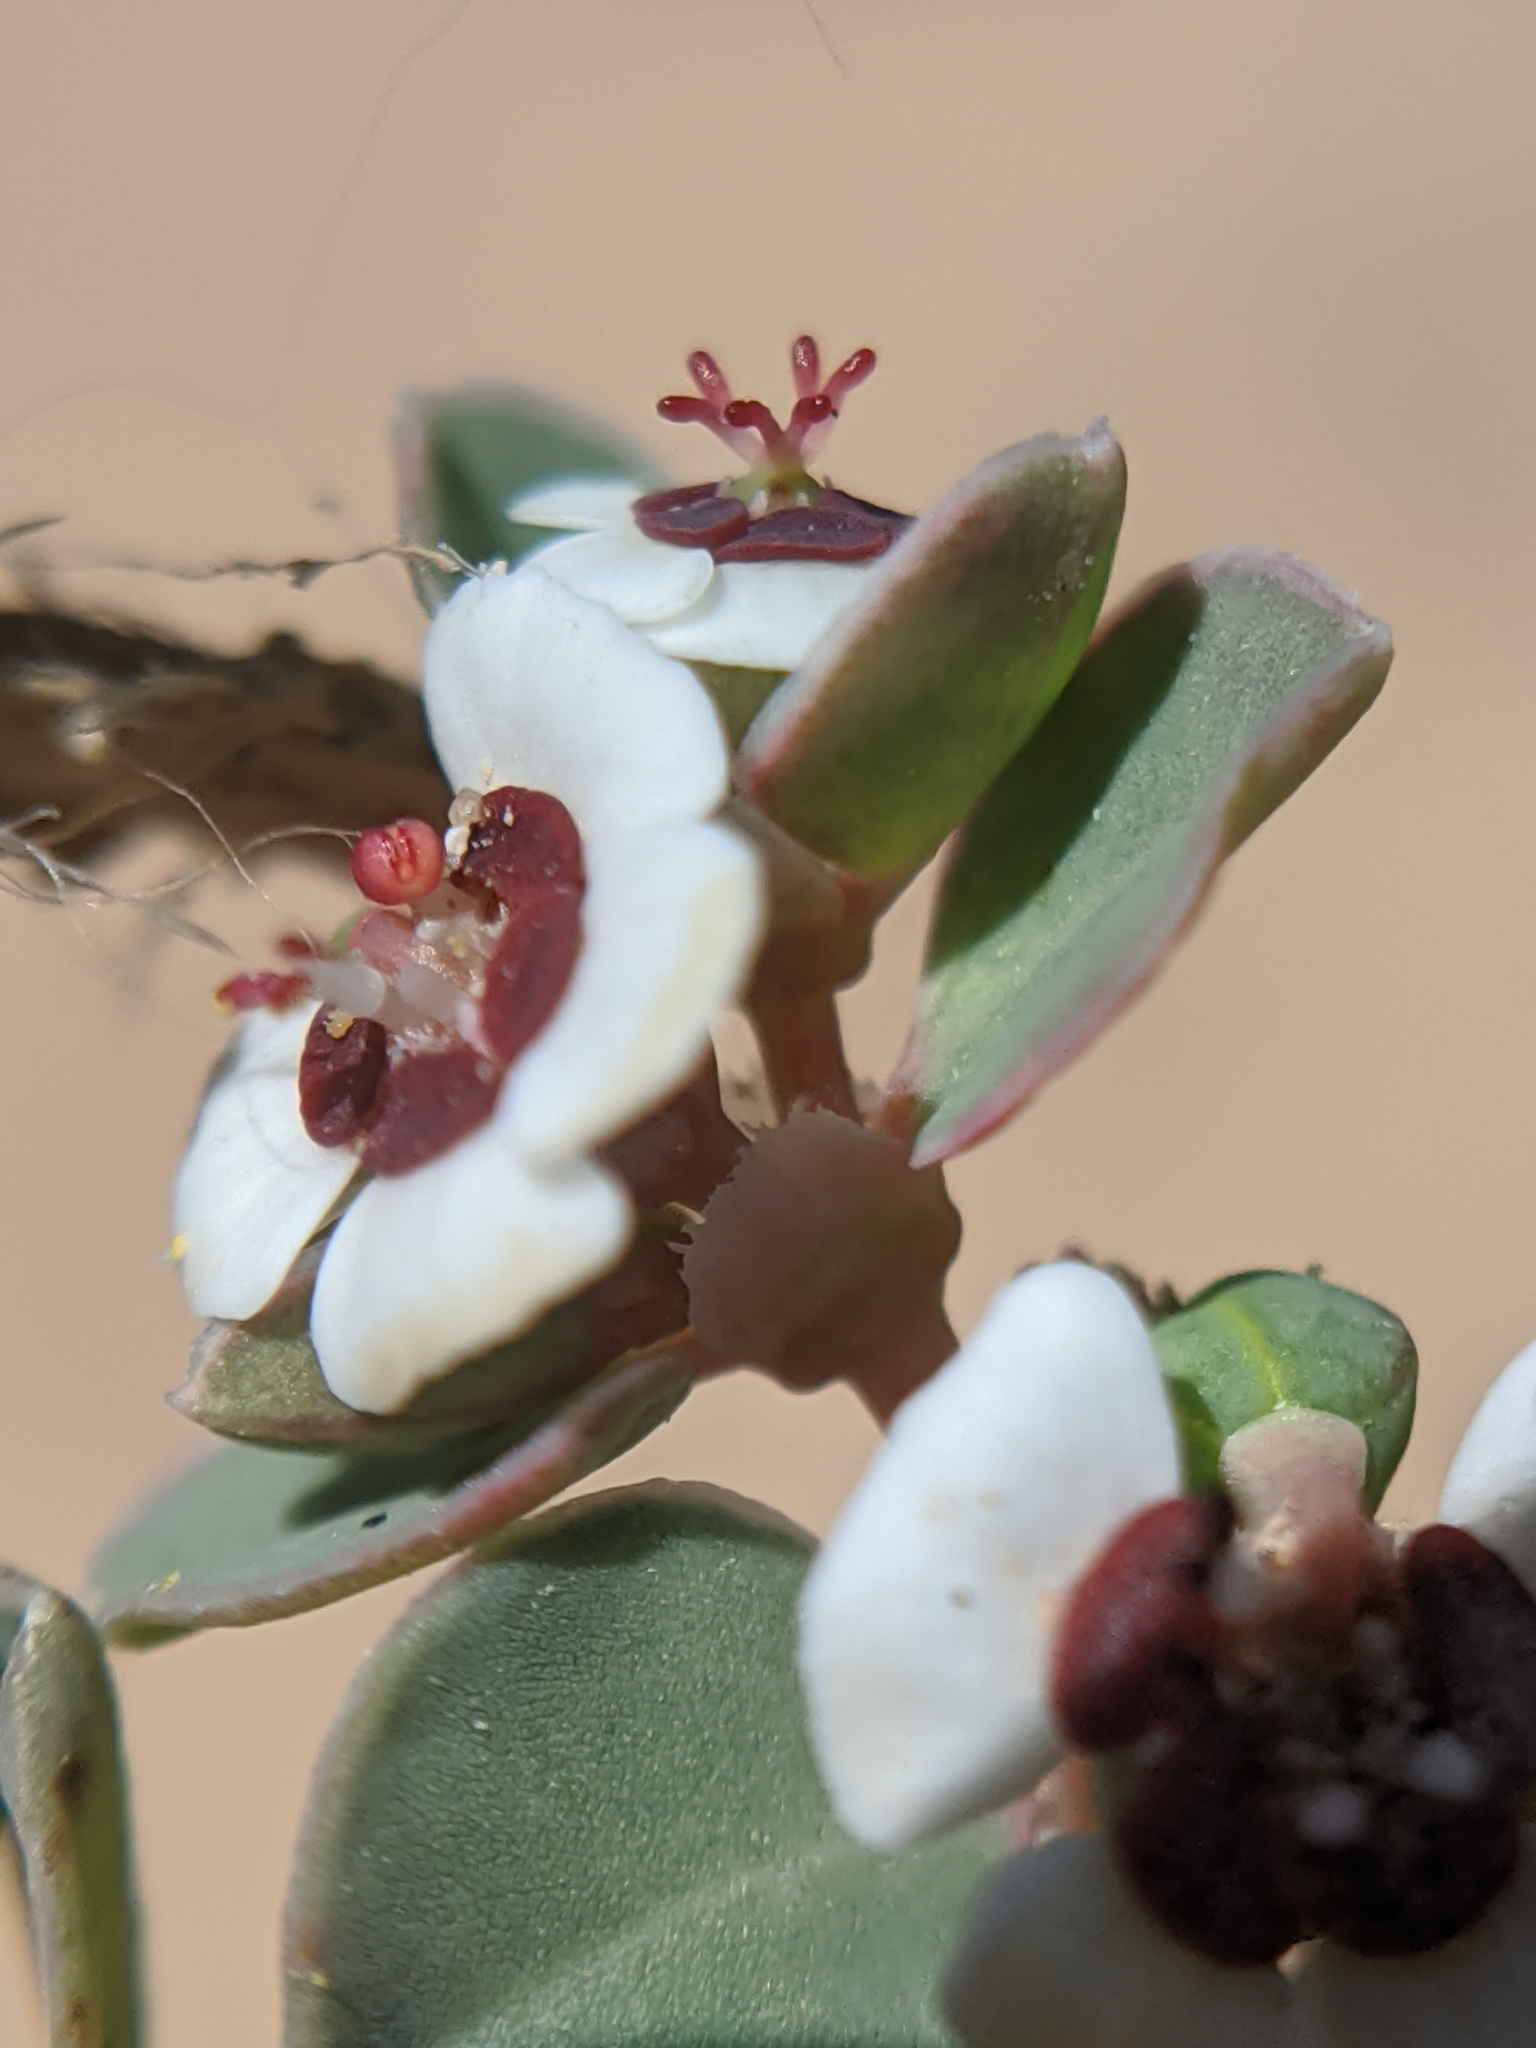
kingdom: Plantae
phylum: Tracheophyta
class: Magnoliopsida
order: Malpighiales
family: Euphorbiaceae
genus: Euphorbia
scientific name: Euphorbia albomarginata
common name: Whitemargin sandmat
